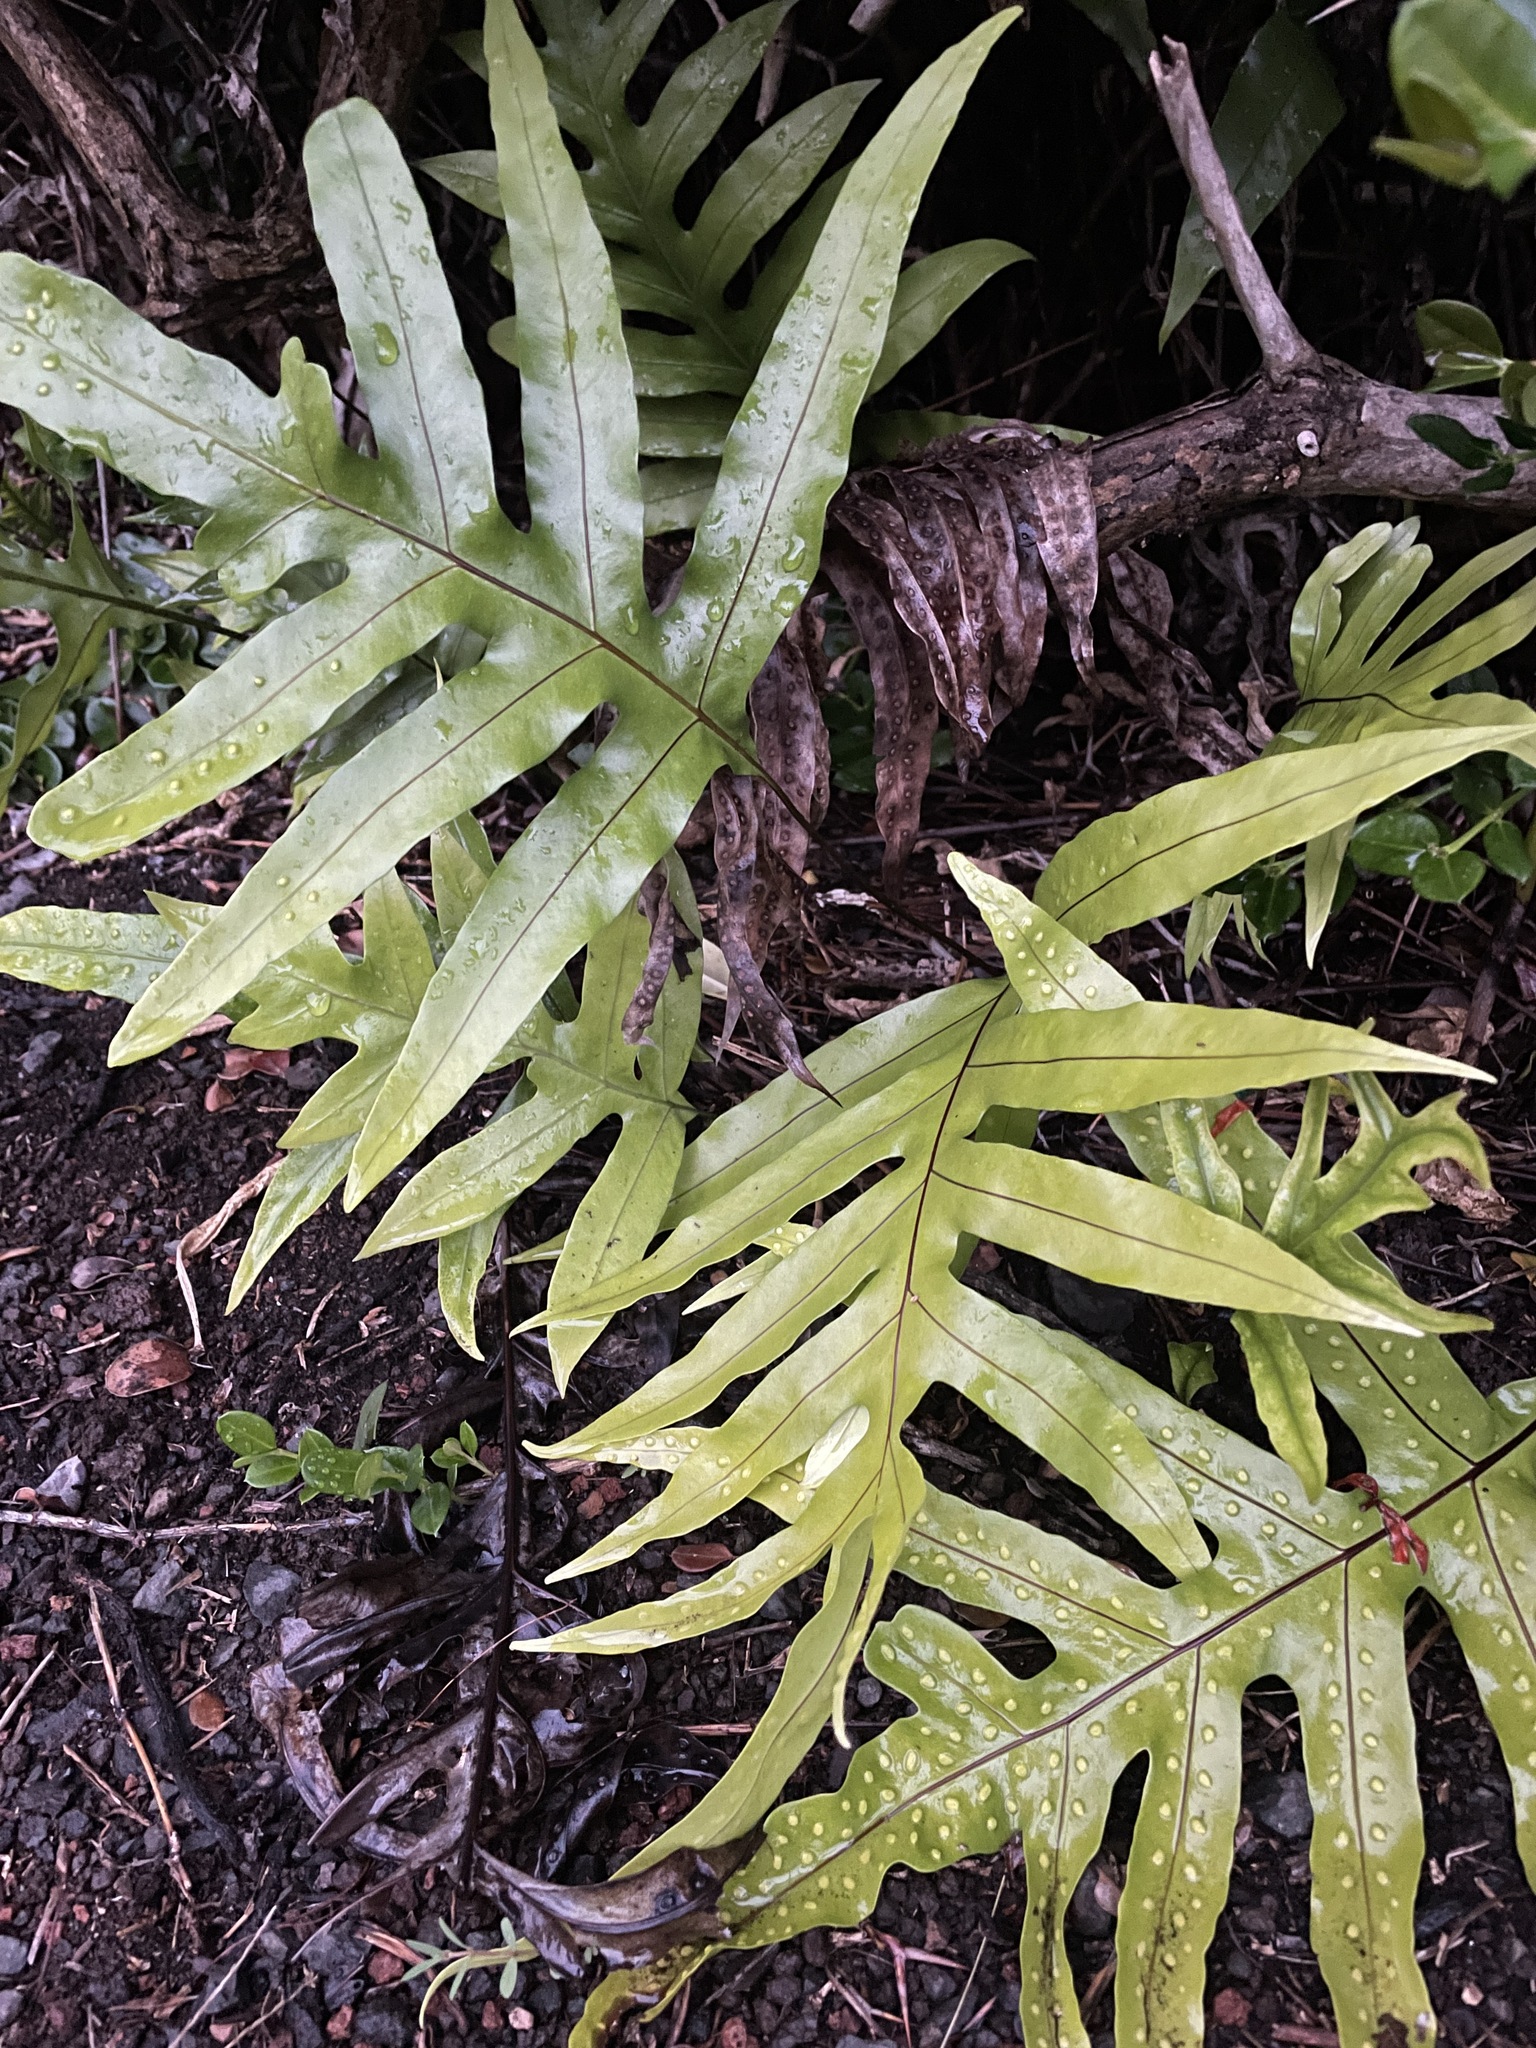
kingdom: Plantae
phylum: Tracheophyta
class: Polypodiopsida
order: Polypodiales
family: Polypodiaceae
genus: Microsorum
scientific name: Microsorum grossum
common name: Musk fern
